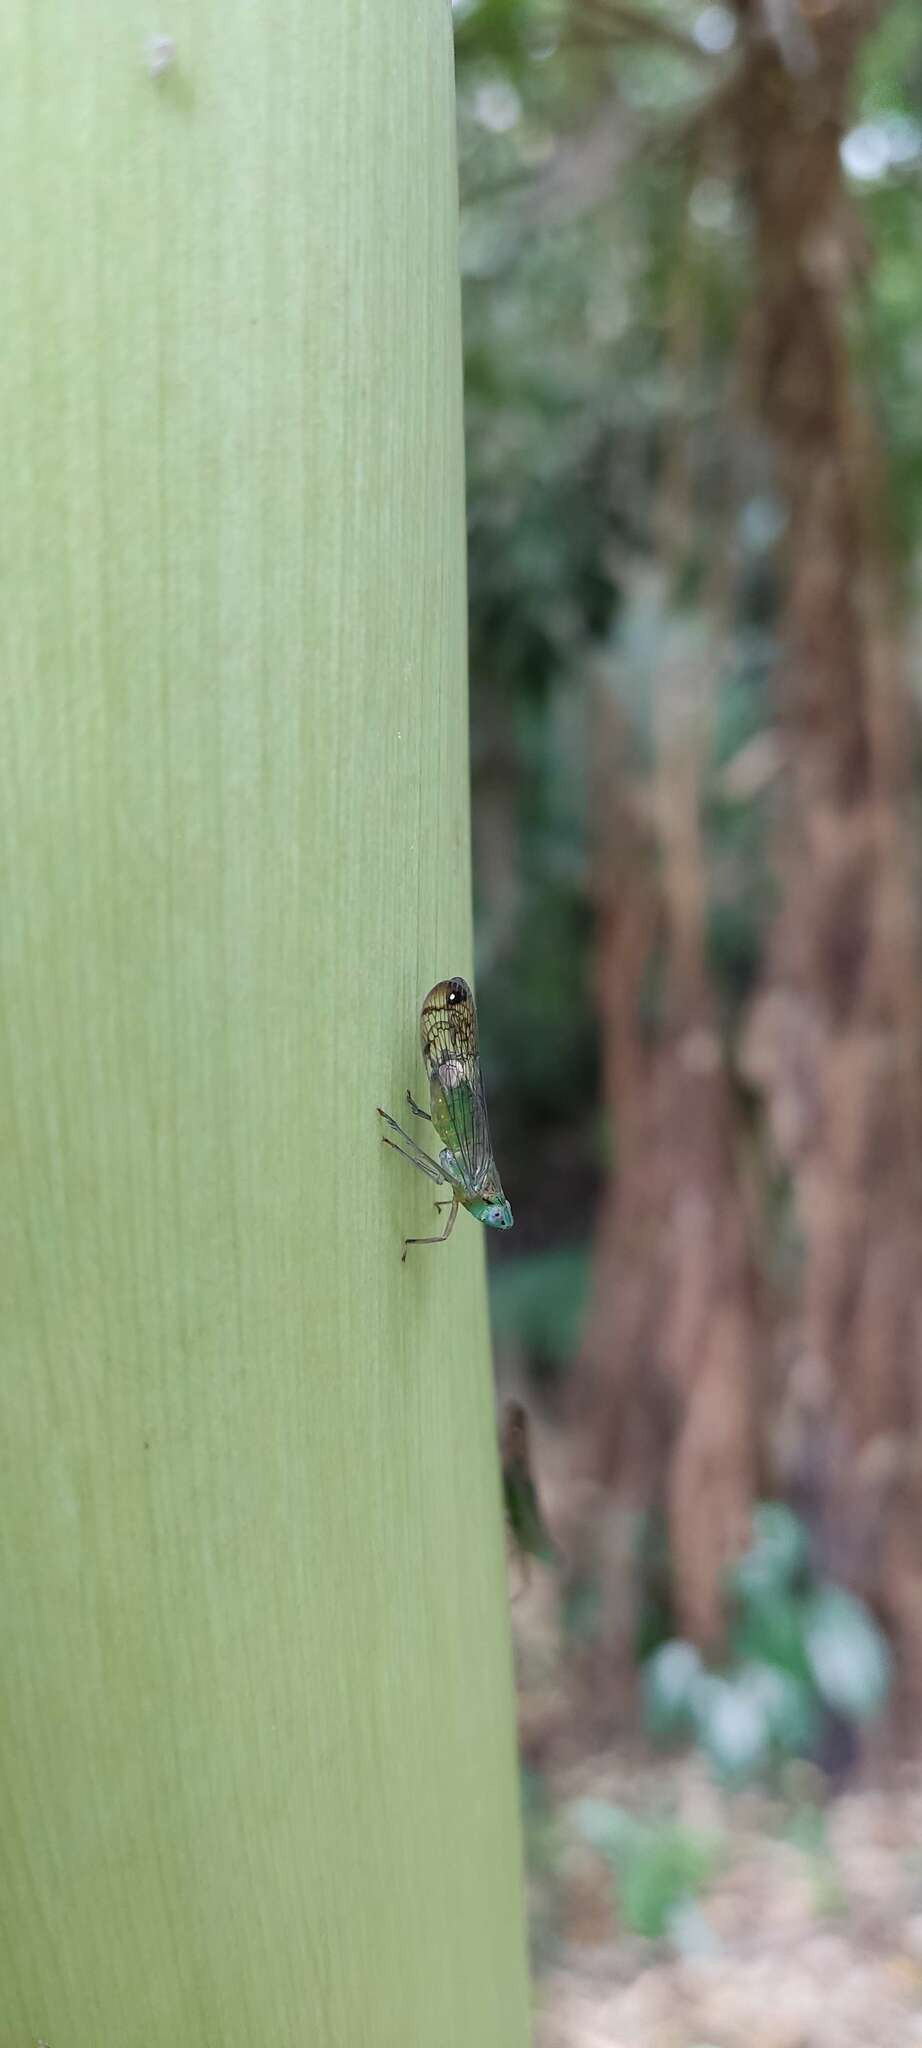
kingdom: Animalia
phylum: Arthropoda
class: Insecta
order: Hemiptera
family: Lophopidae
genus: Magia
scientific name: Magia subocellata
